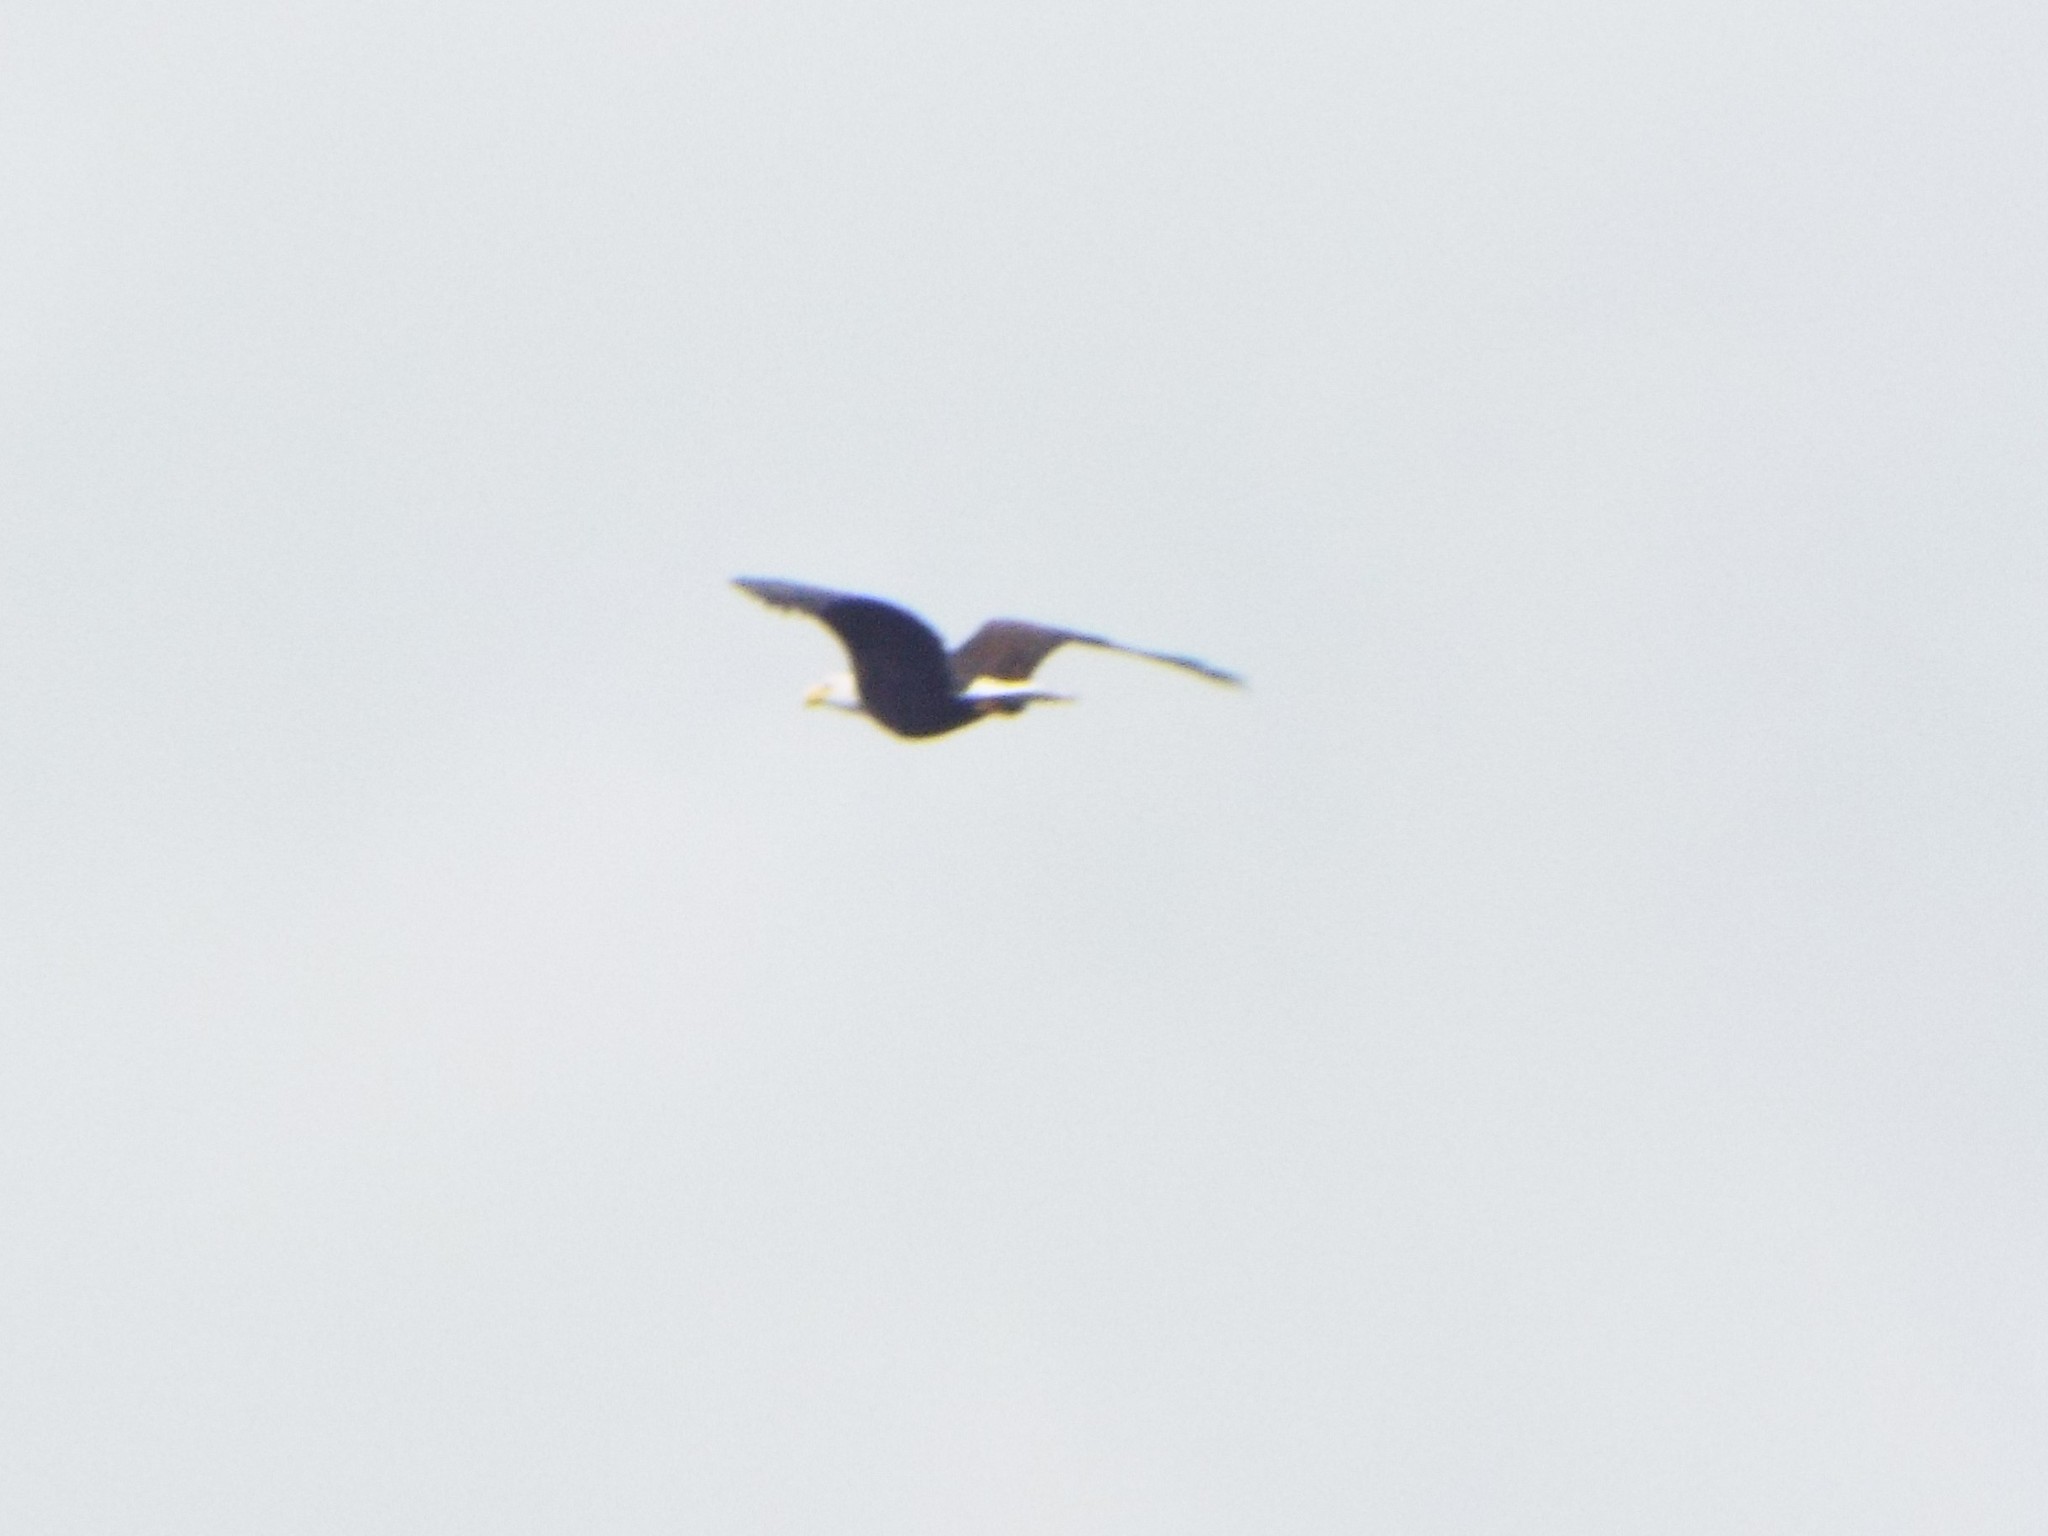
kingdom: Animalia
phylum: Chordata
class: Aves
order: Accipitriformes
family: Accipitridae
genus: Haliaeetus
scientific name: Haliaeetus leucocephalus
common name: Bald eagle
